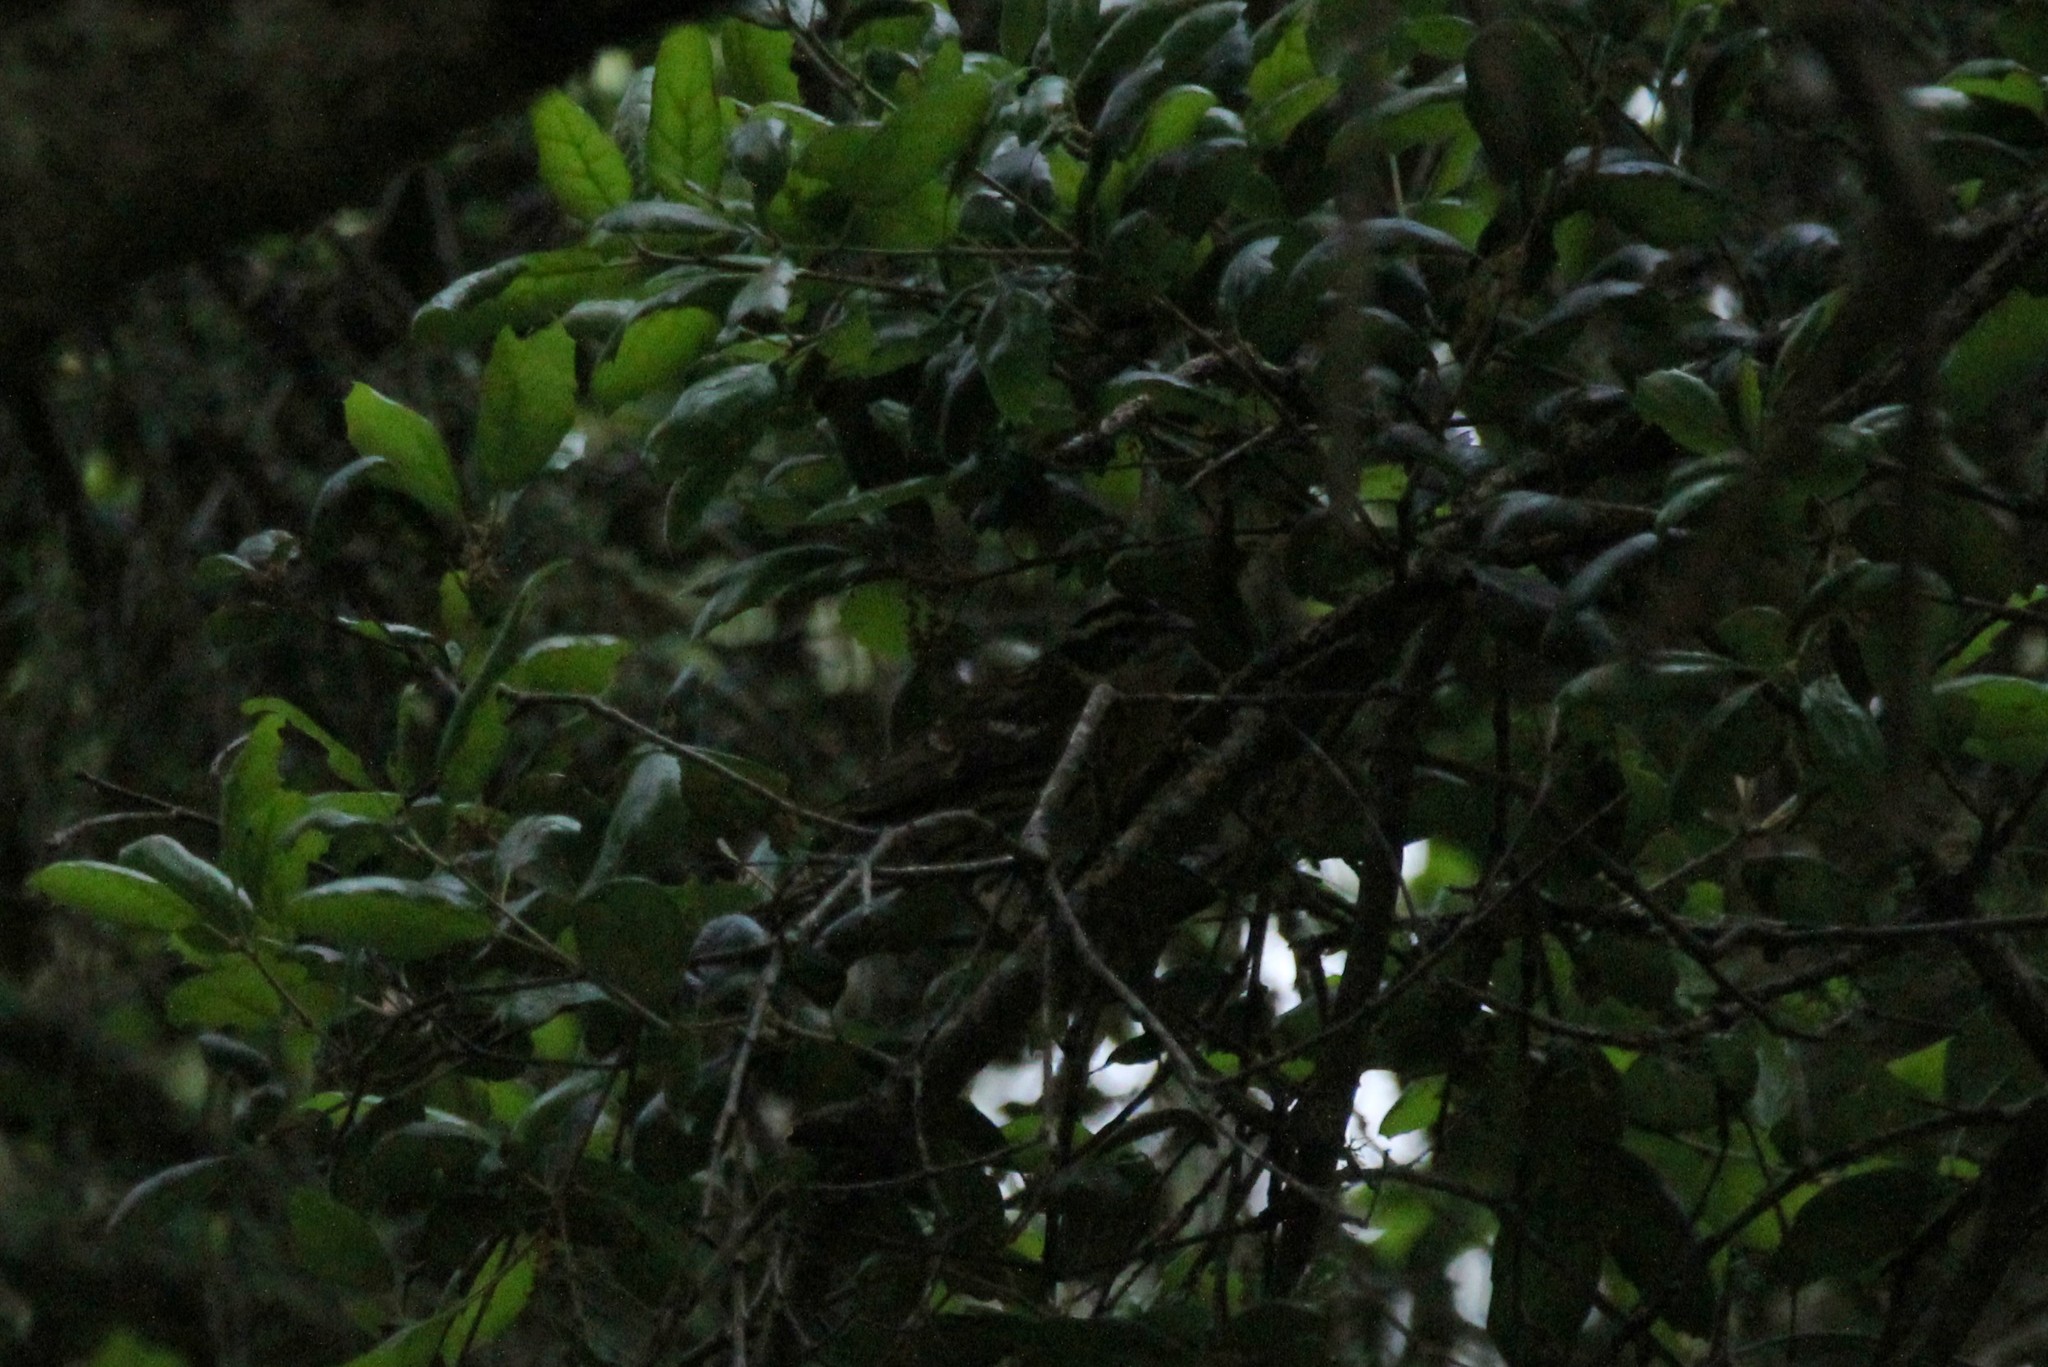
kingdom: Animalia
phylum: Chordata
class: Aves
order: Passeriformes
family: Cardinalidae
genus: Pheucticus
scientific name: Pheucticus melanocephalus
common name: Black-headed grosbeak
